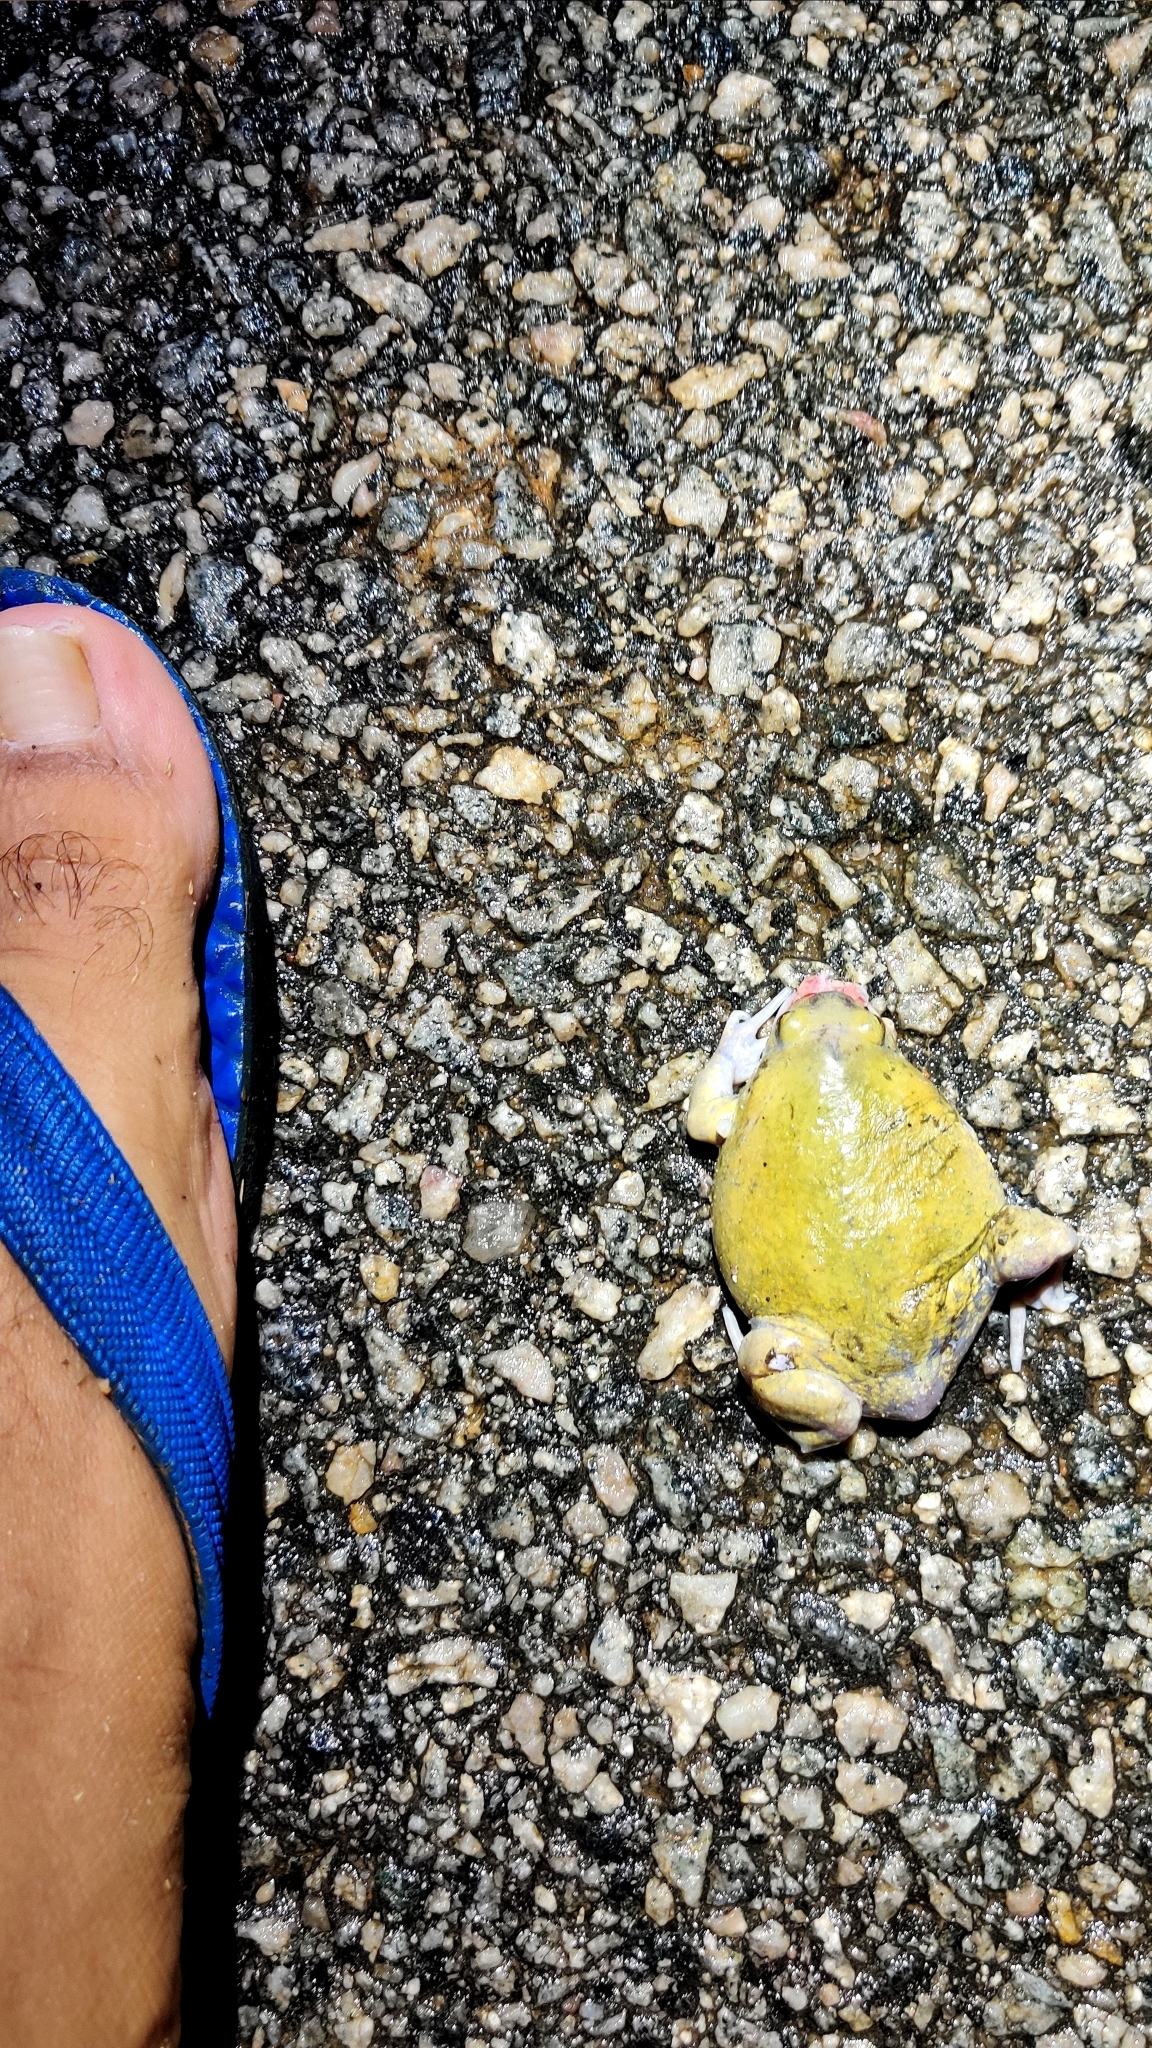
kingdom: Animalia
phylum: Chordata
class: Amphibia
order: Anura
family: Microhylidae
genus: Uperodon
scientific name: Uperodon globulosus
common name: Indian globular frog
